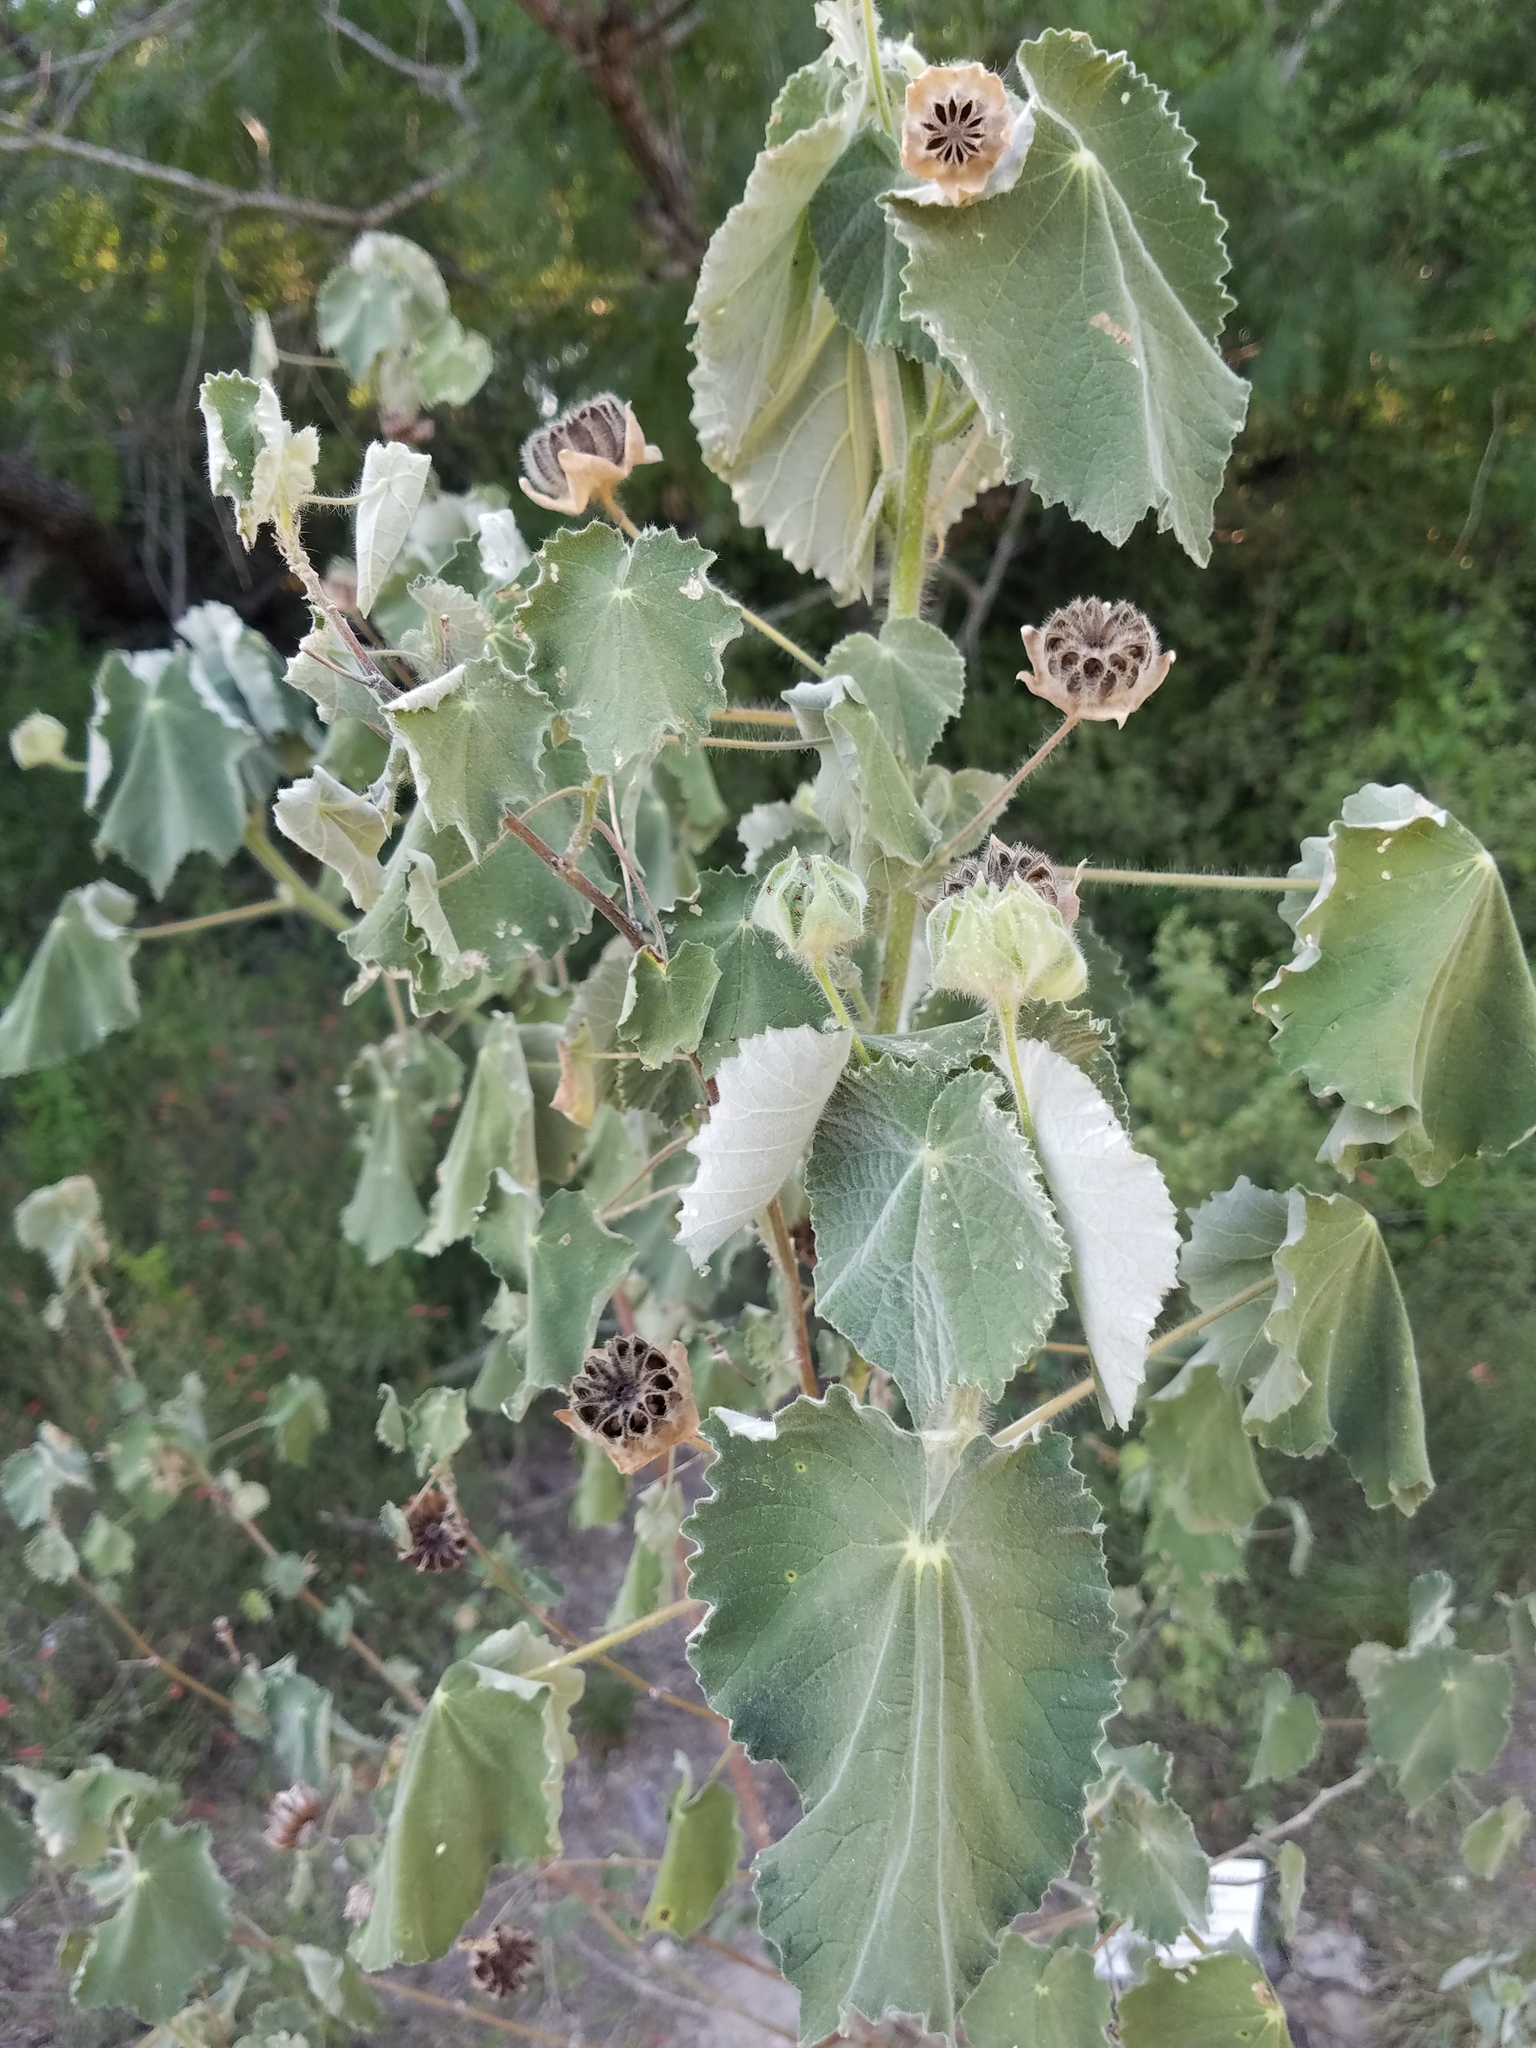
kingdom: Plantae
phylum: Tracheophyta
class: Magnoliopsida
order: Malvales
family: Malvaceae
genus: Abutilon
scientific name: Abutilon hulseanum
